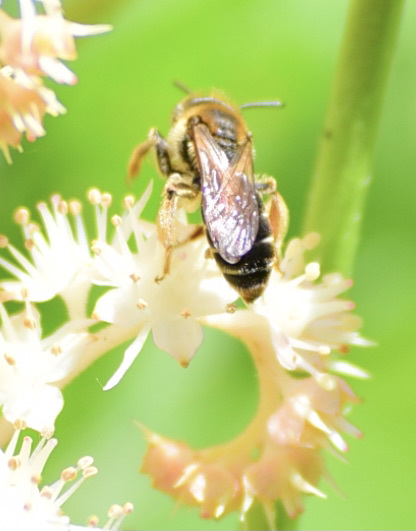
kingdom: Animalia
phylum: Arthropoda
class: Insecta
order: Hymenoptera
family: Andrenidae
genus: Andrena
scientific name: Andrena wilkella
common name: Wilke's mining bee
